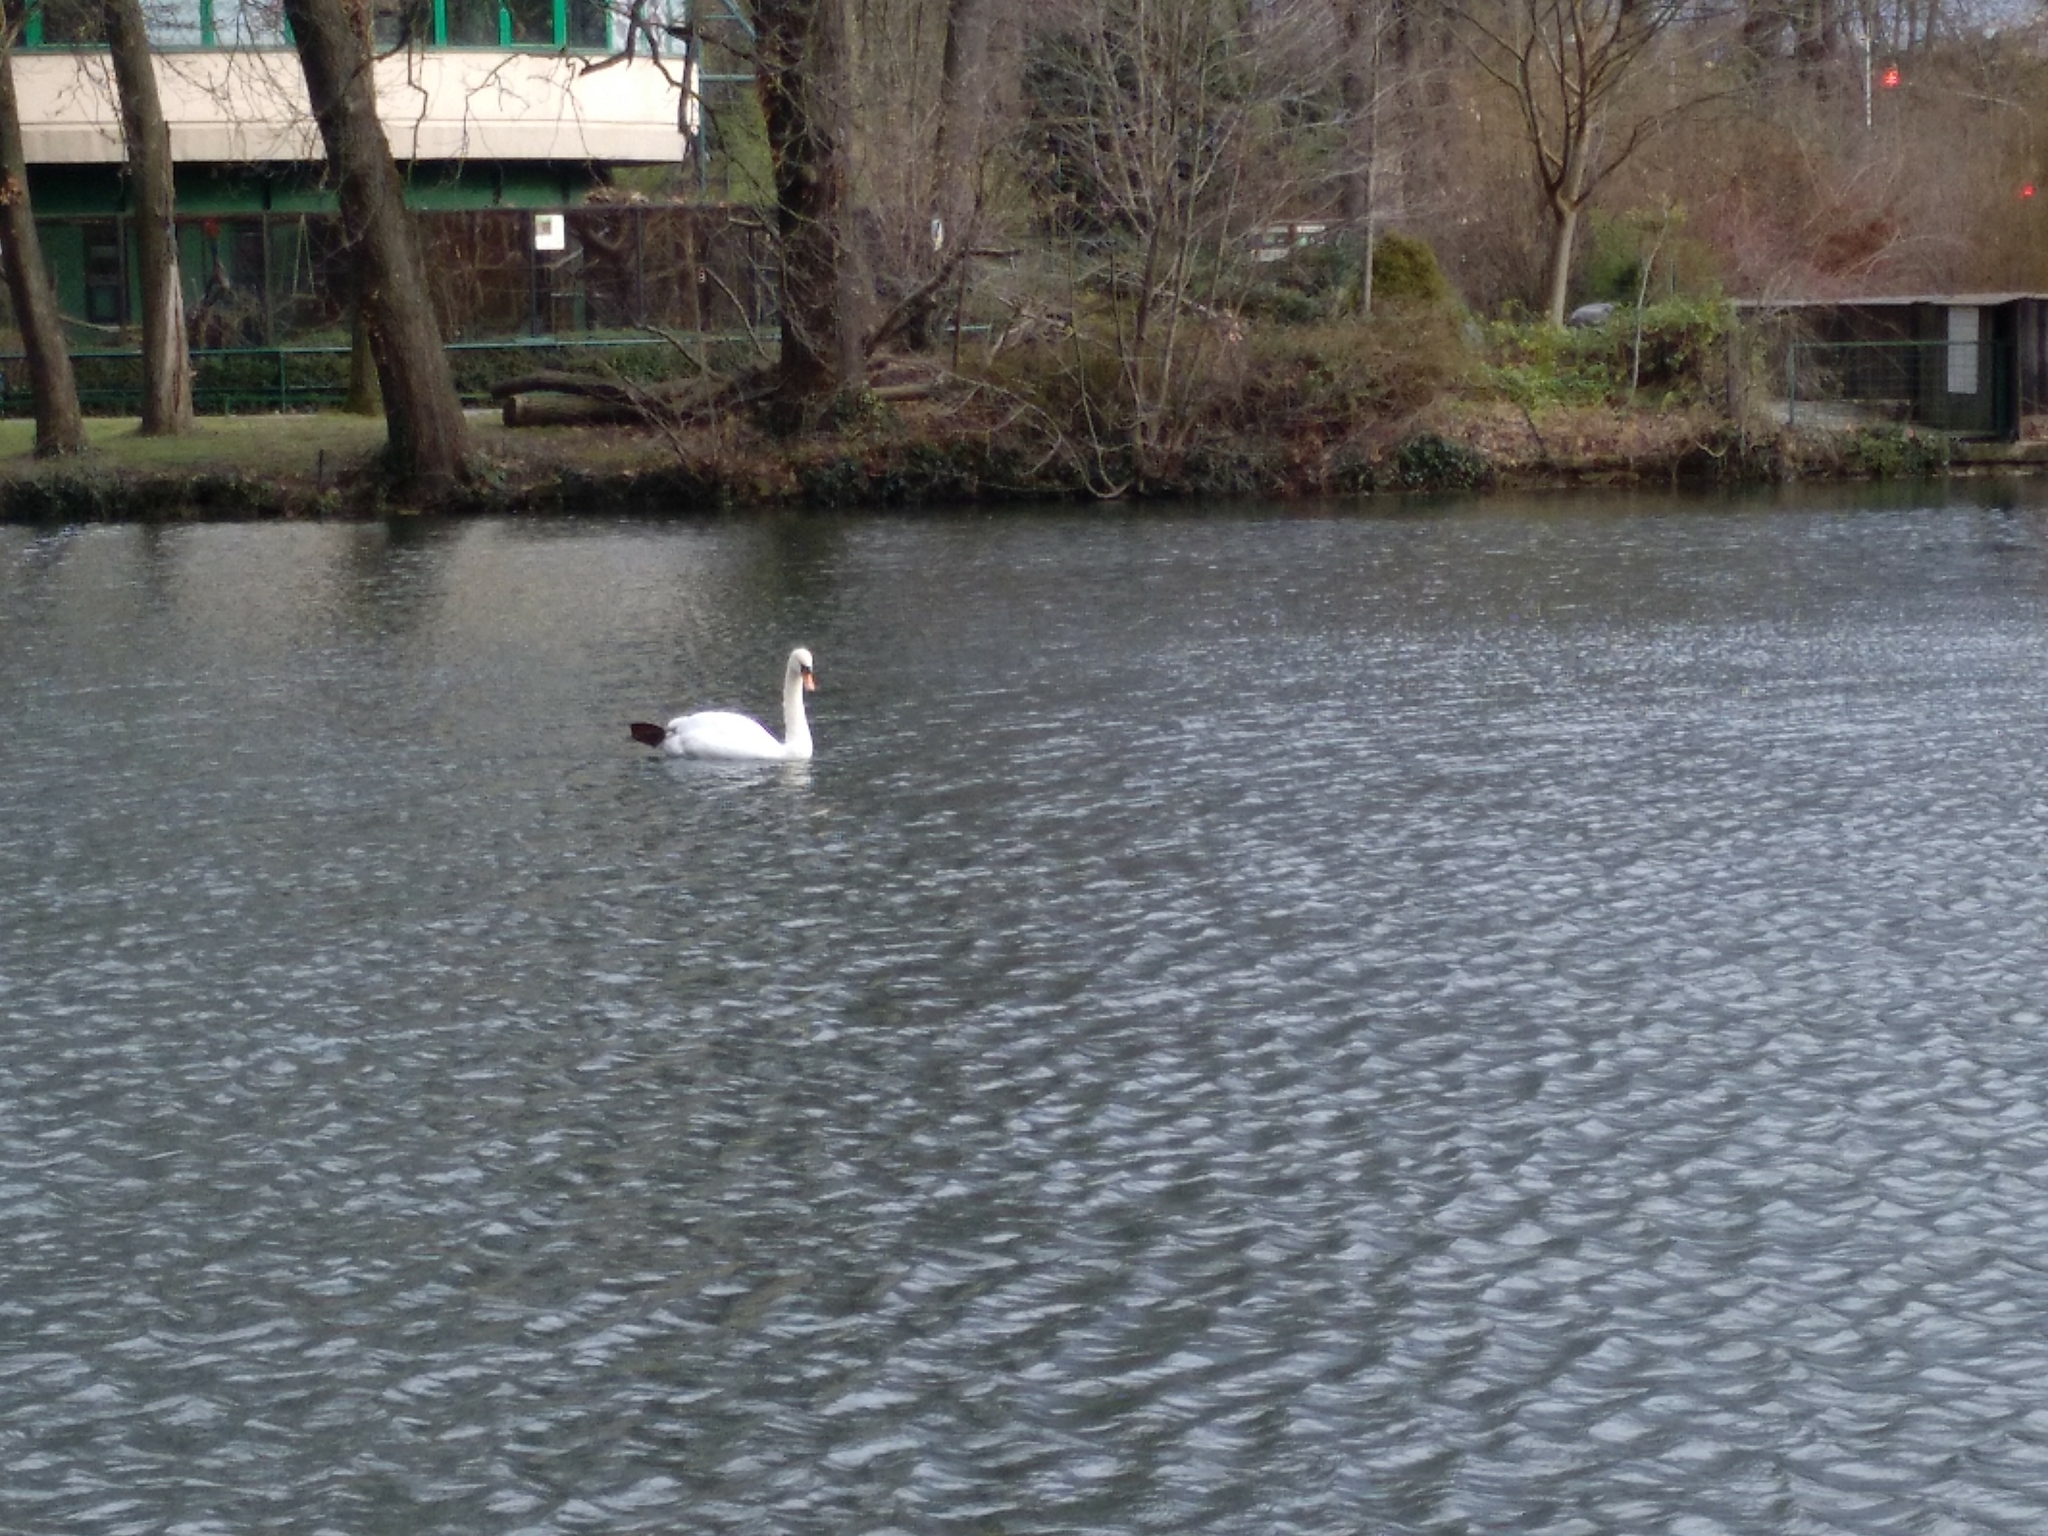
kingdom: Animalia
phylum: Chordata
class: Aves
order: Anseriformes
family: Anatidae
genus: Cygnus
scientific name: Cygnus olor
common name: Mute swan
